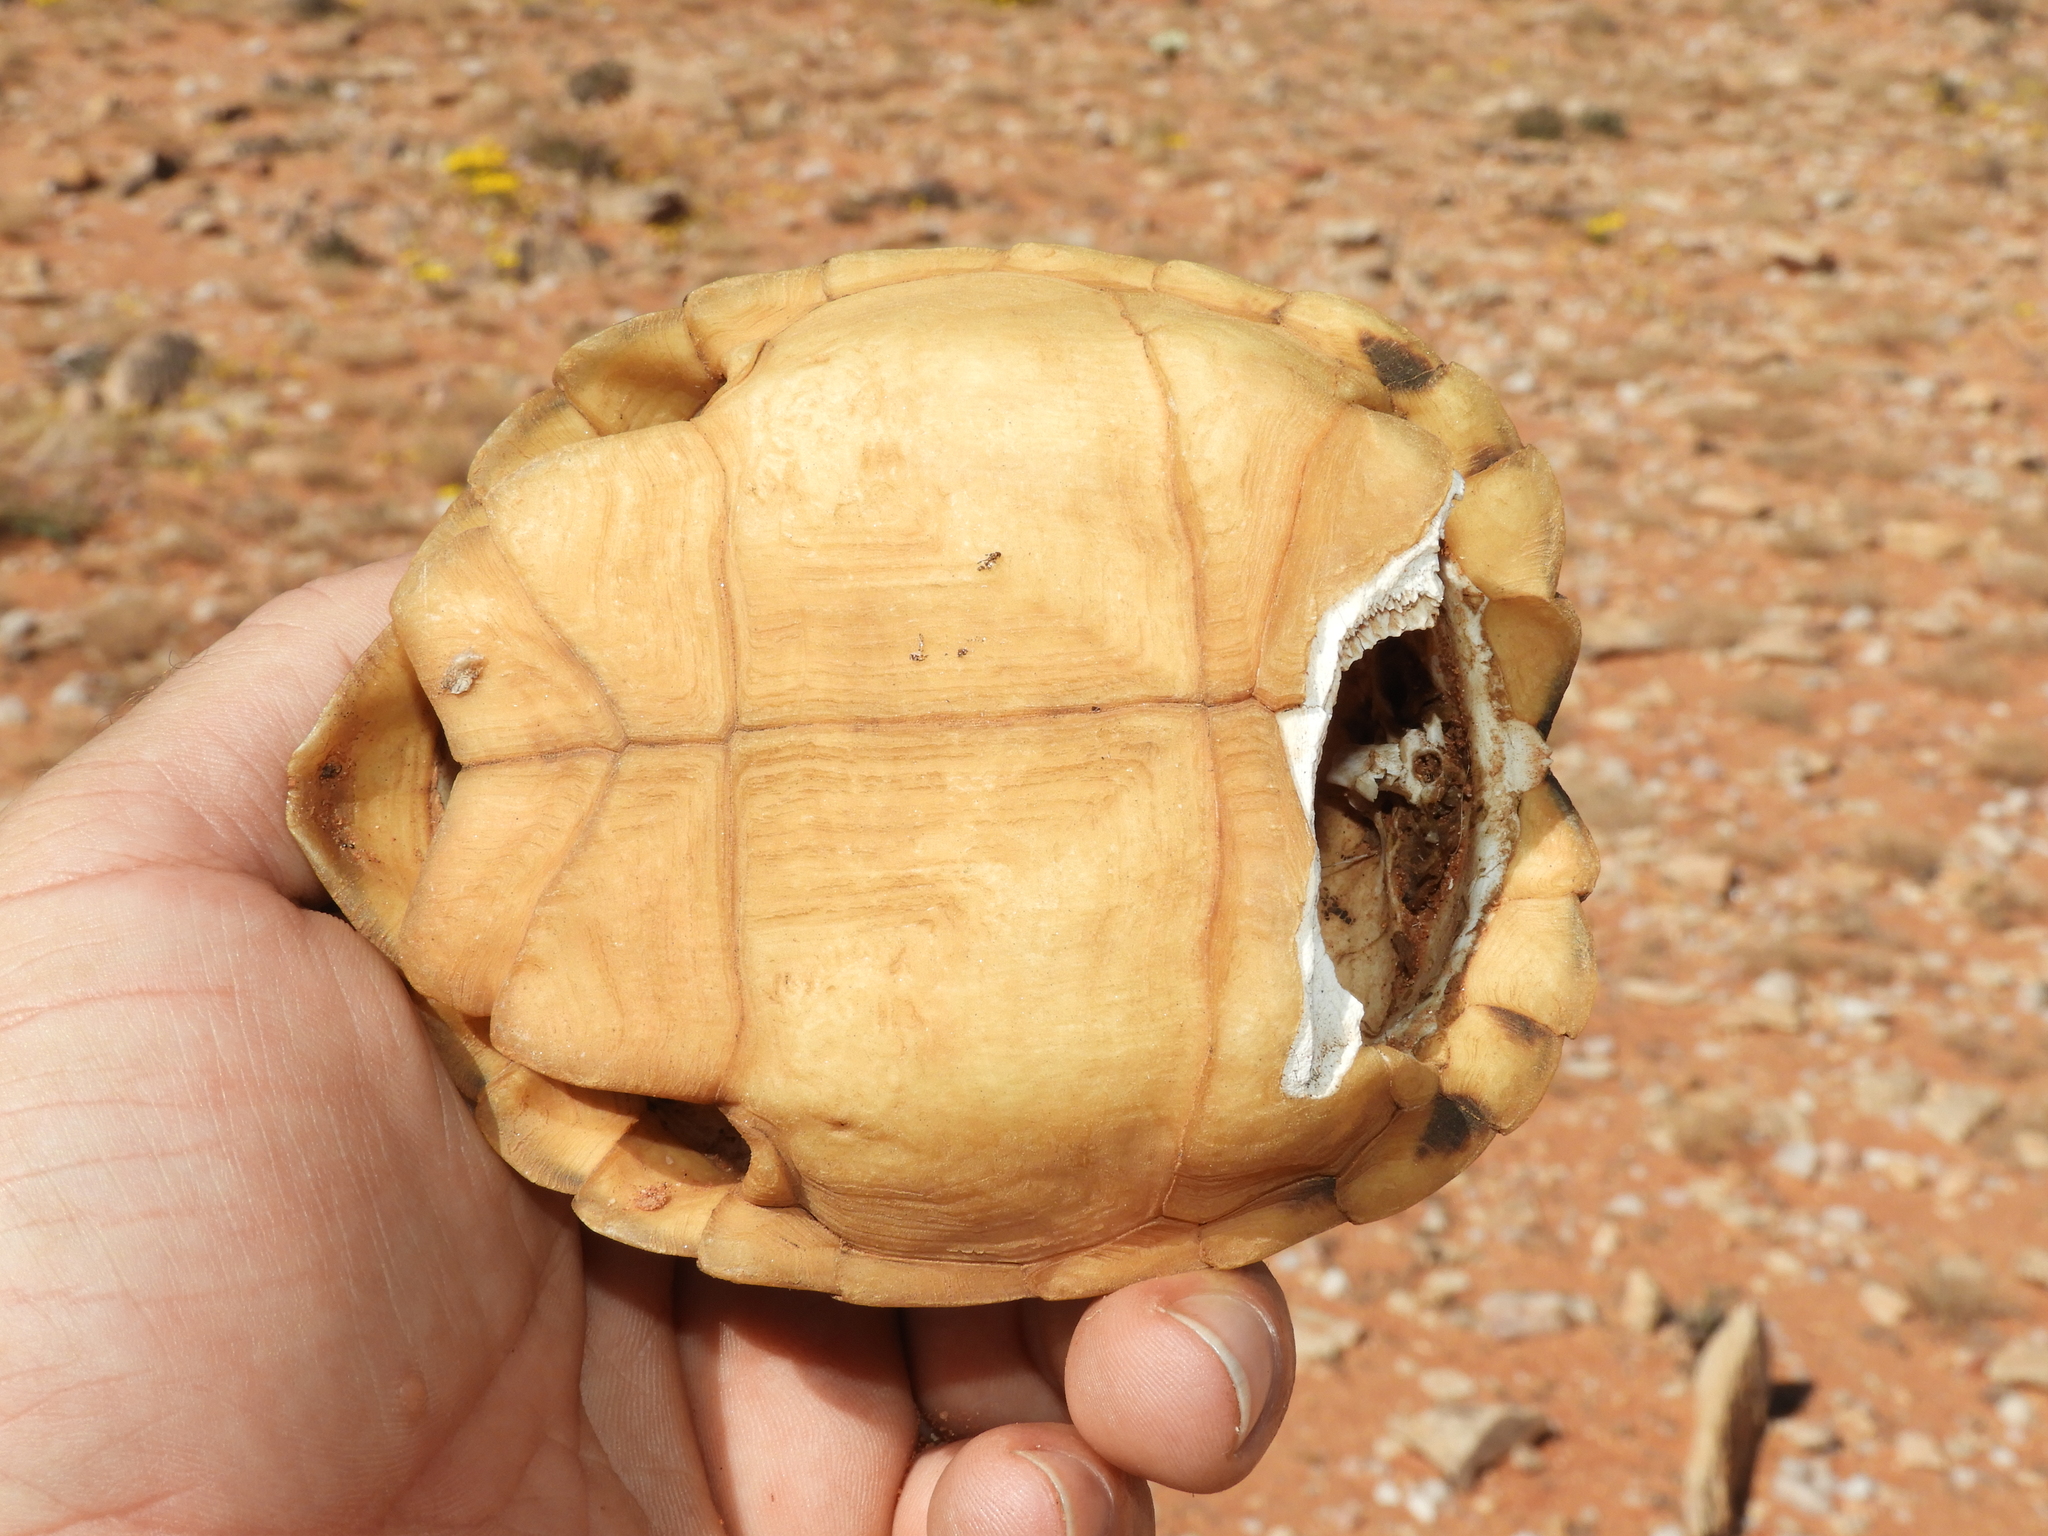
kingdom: Animalia
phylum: Chordata
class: Testudines
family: Testudinidae
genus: Psammobates
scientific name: Psammobates tentorius
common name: Tent tortoise
